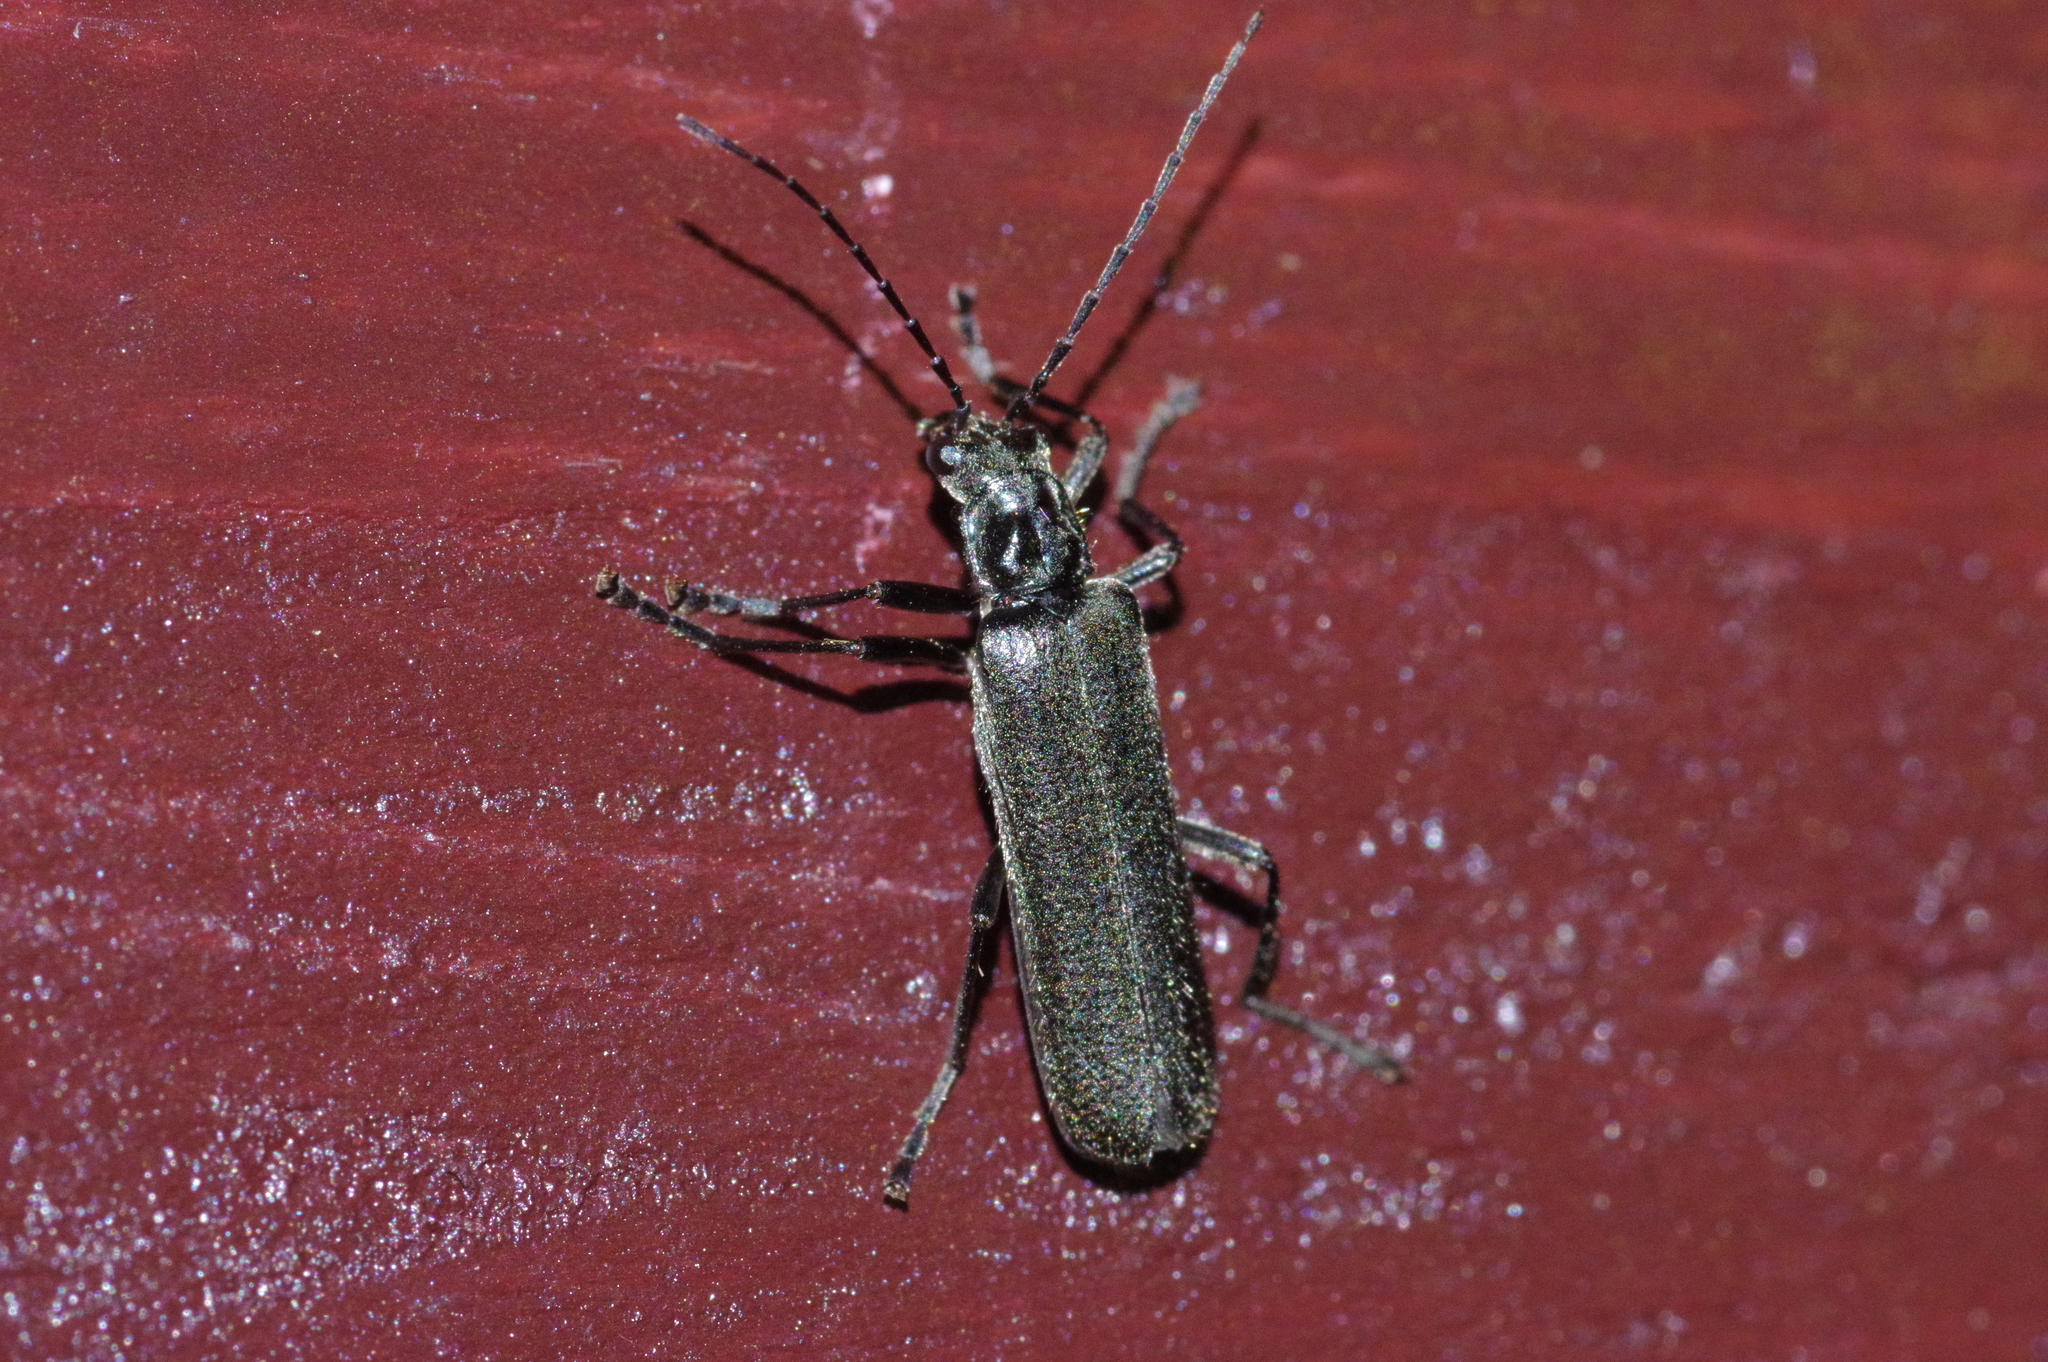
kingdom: Animalia
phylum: Arthropoda
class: Insecta
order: Coleoptera
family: Cantharidae
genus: Lycocerus
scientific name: Lycocerus
